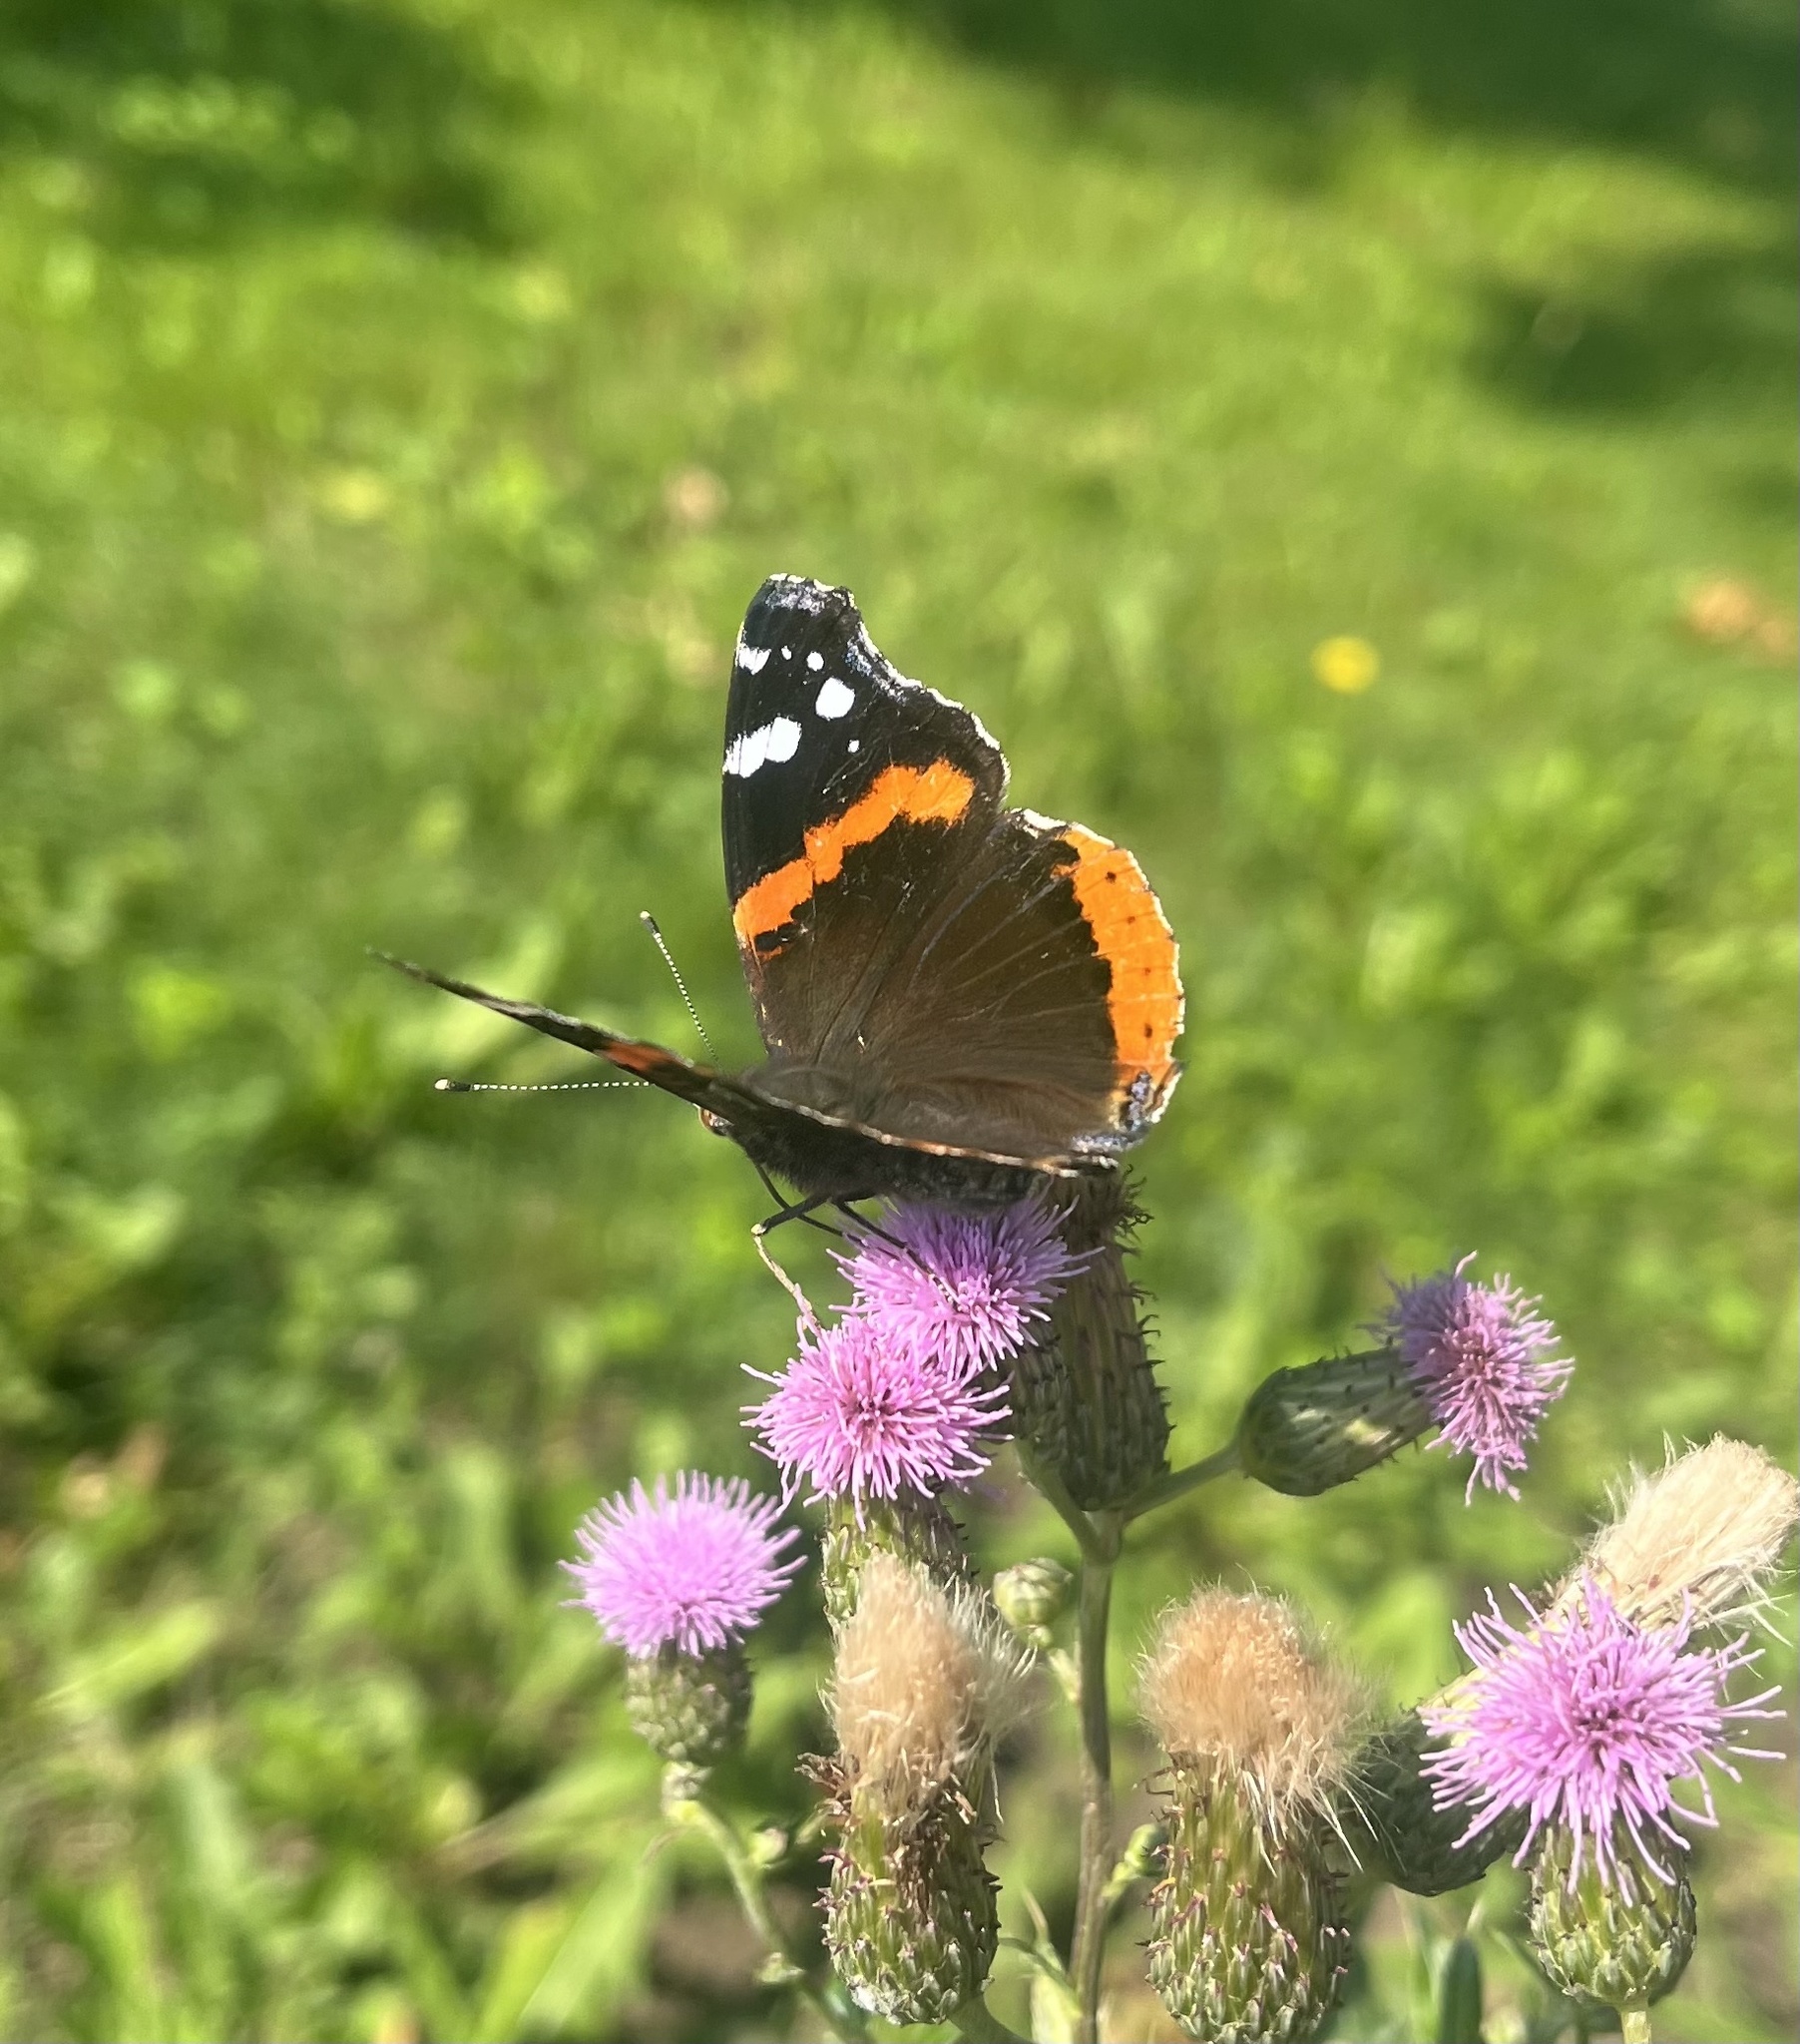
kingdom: Animalia
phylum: Arthropoda
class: Insecta
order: Lepidoptera
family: Nymphalidae
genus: Vanessa
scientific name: Vanessa atalanta
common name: Red admiral
